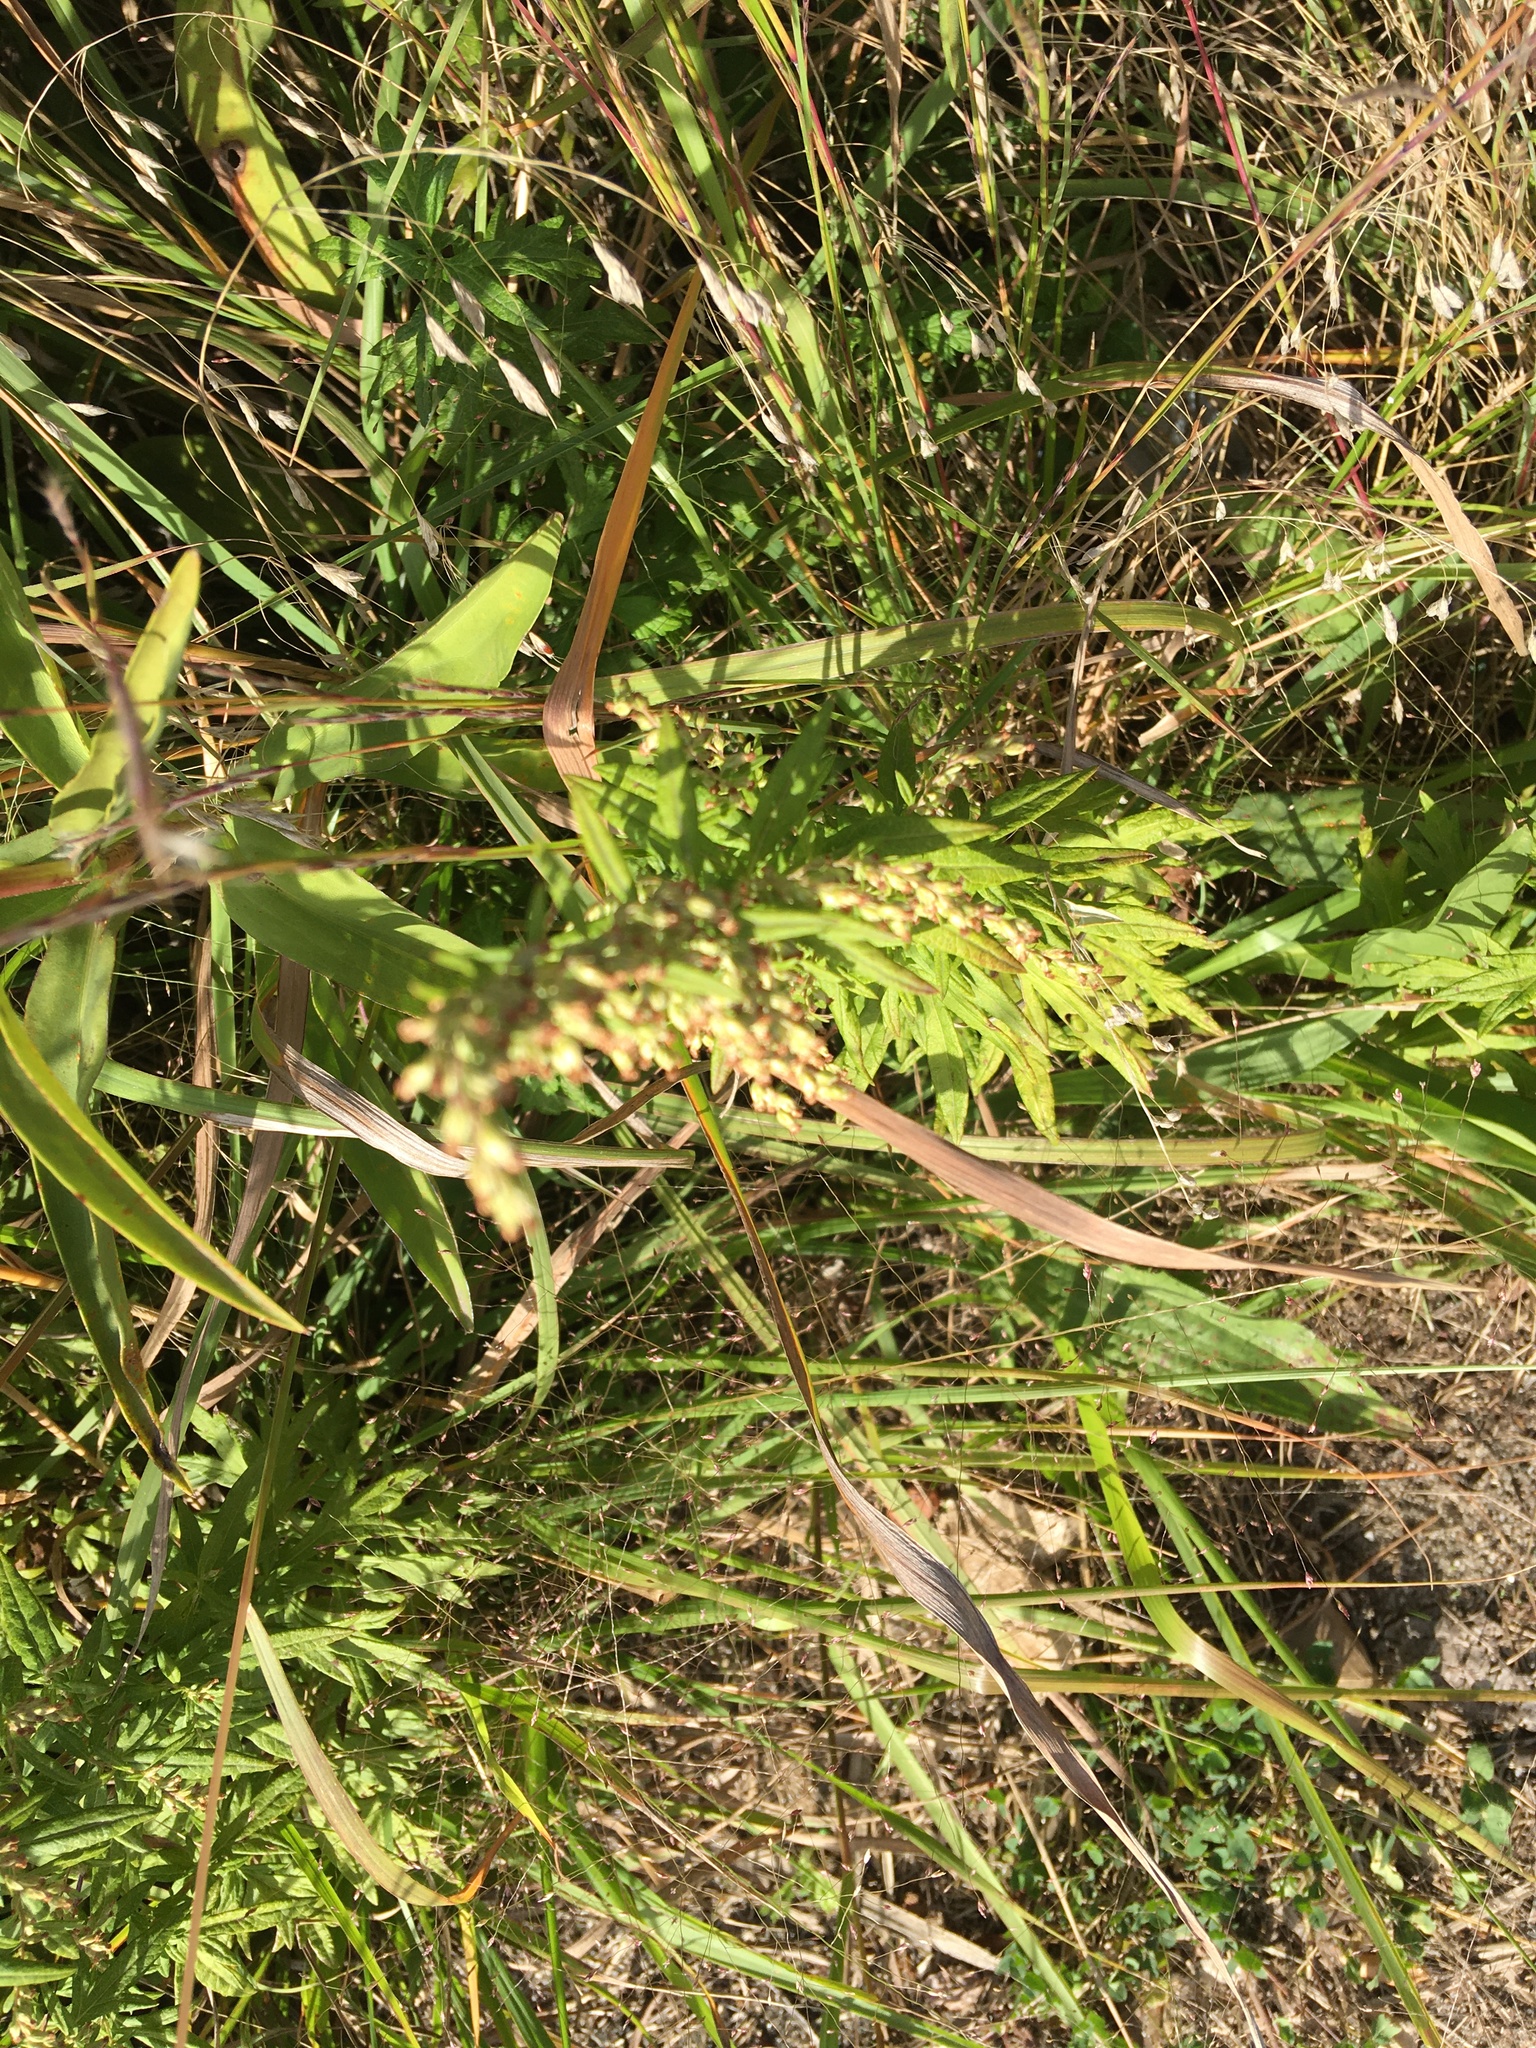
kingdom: Plantae
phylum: Tracheophyta
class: Magnoliopsida
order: Asterales
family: Asteraceae
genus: Artemisia
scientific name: Artemisia vulgaris
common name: Mugwort
